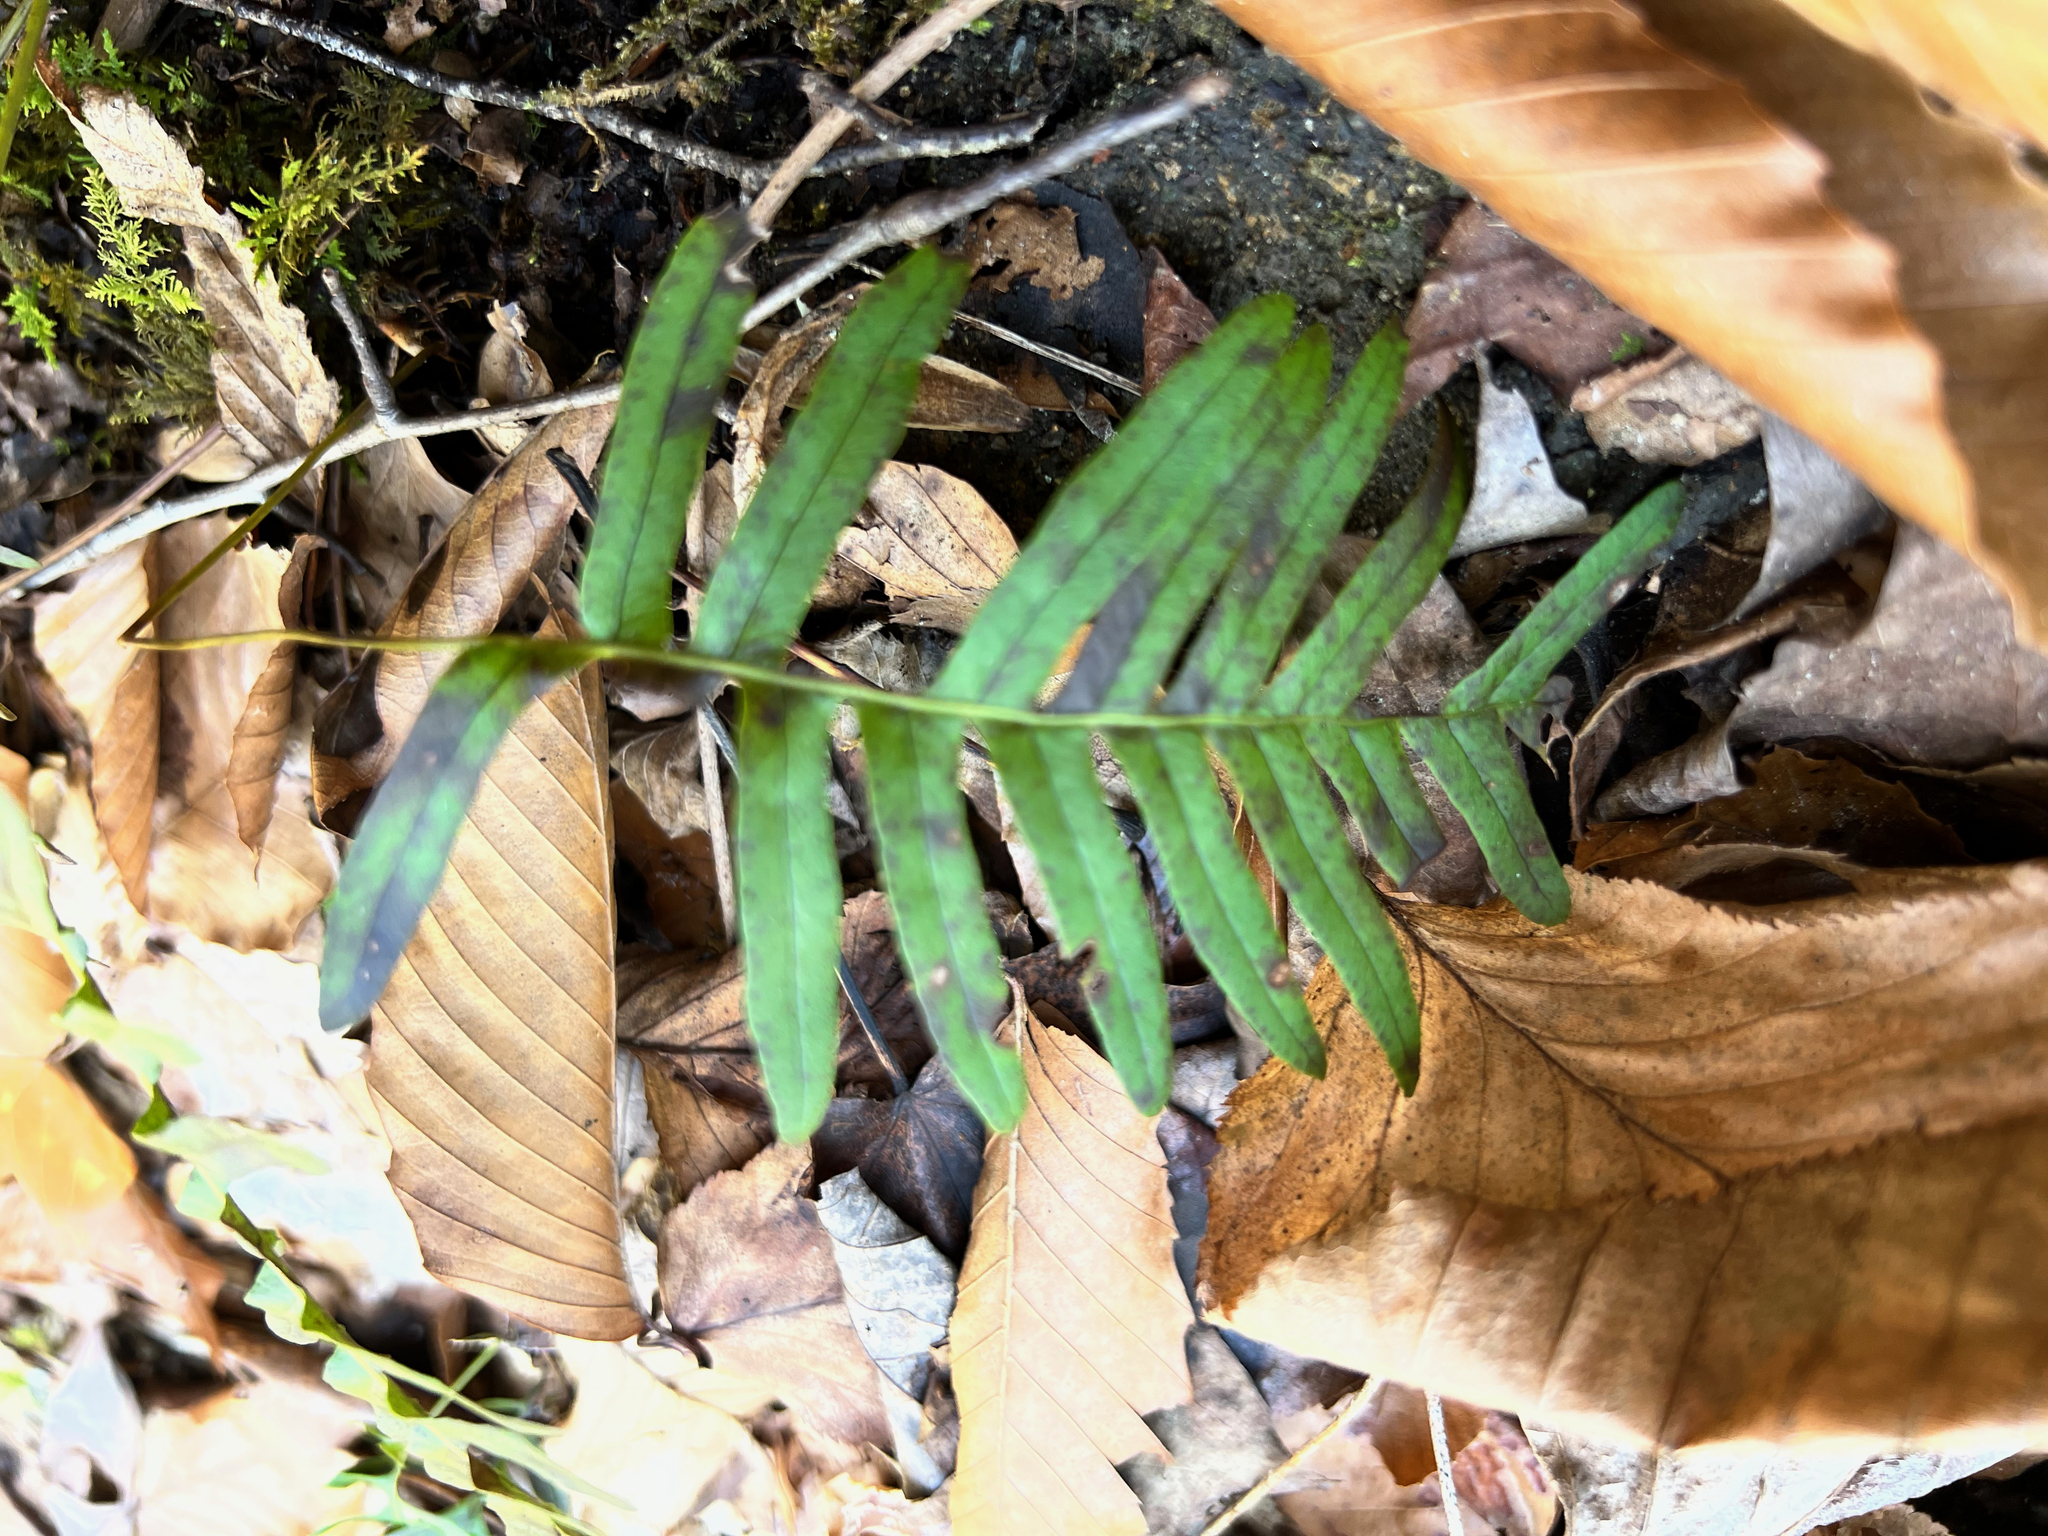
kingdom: Plantae
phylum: Tracheophyta
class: Polypodiopsida
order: Polypodiales
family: Polypodiaceae
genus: Polypodium
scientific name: Polypodium appalachianum
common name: Appalachian polypody
